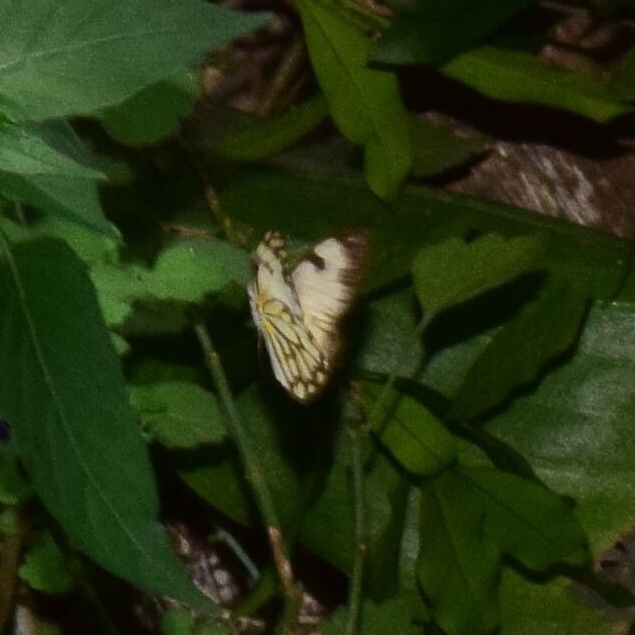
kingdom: Animalia
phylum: Arthropoda
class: Insecta
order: Lepidoptera
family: Pieridae
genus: Belenois
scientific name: Belenois aurota
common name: Brown-veined white
